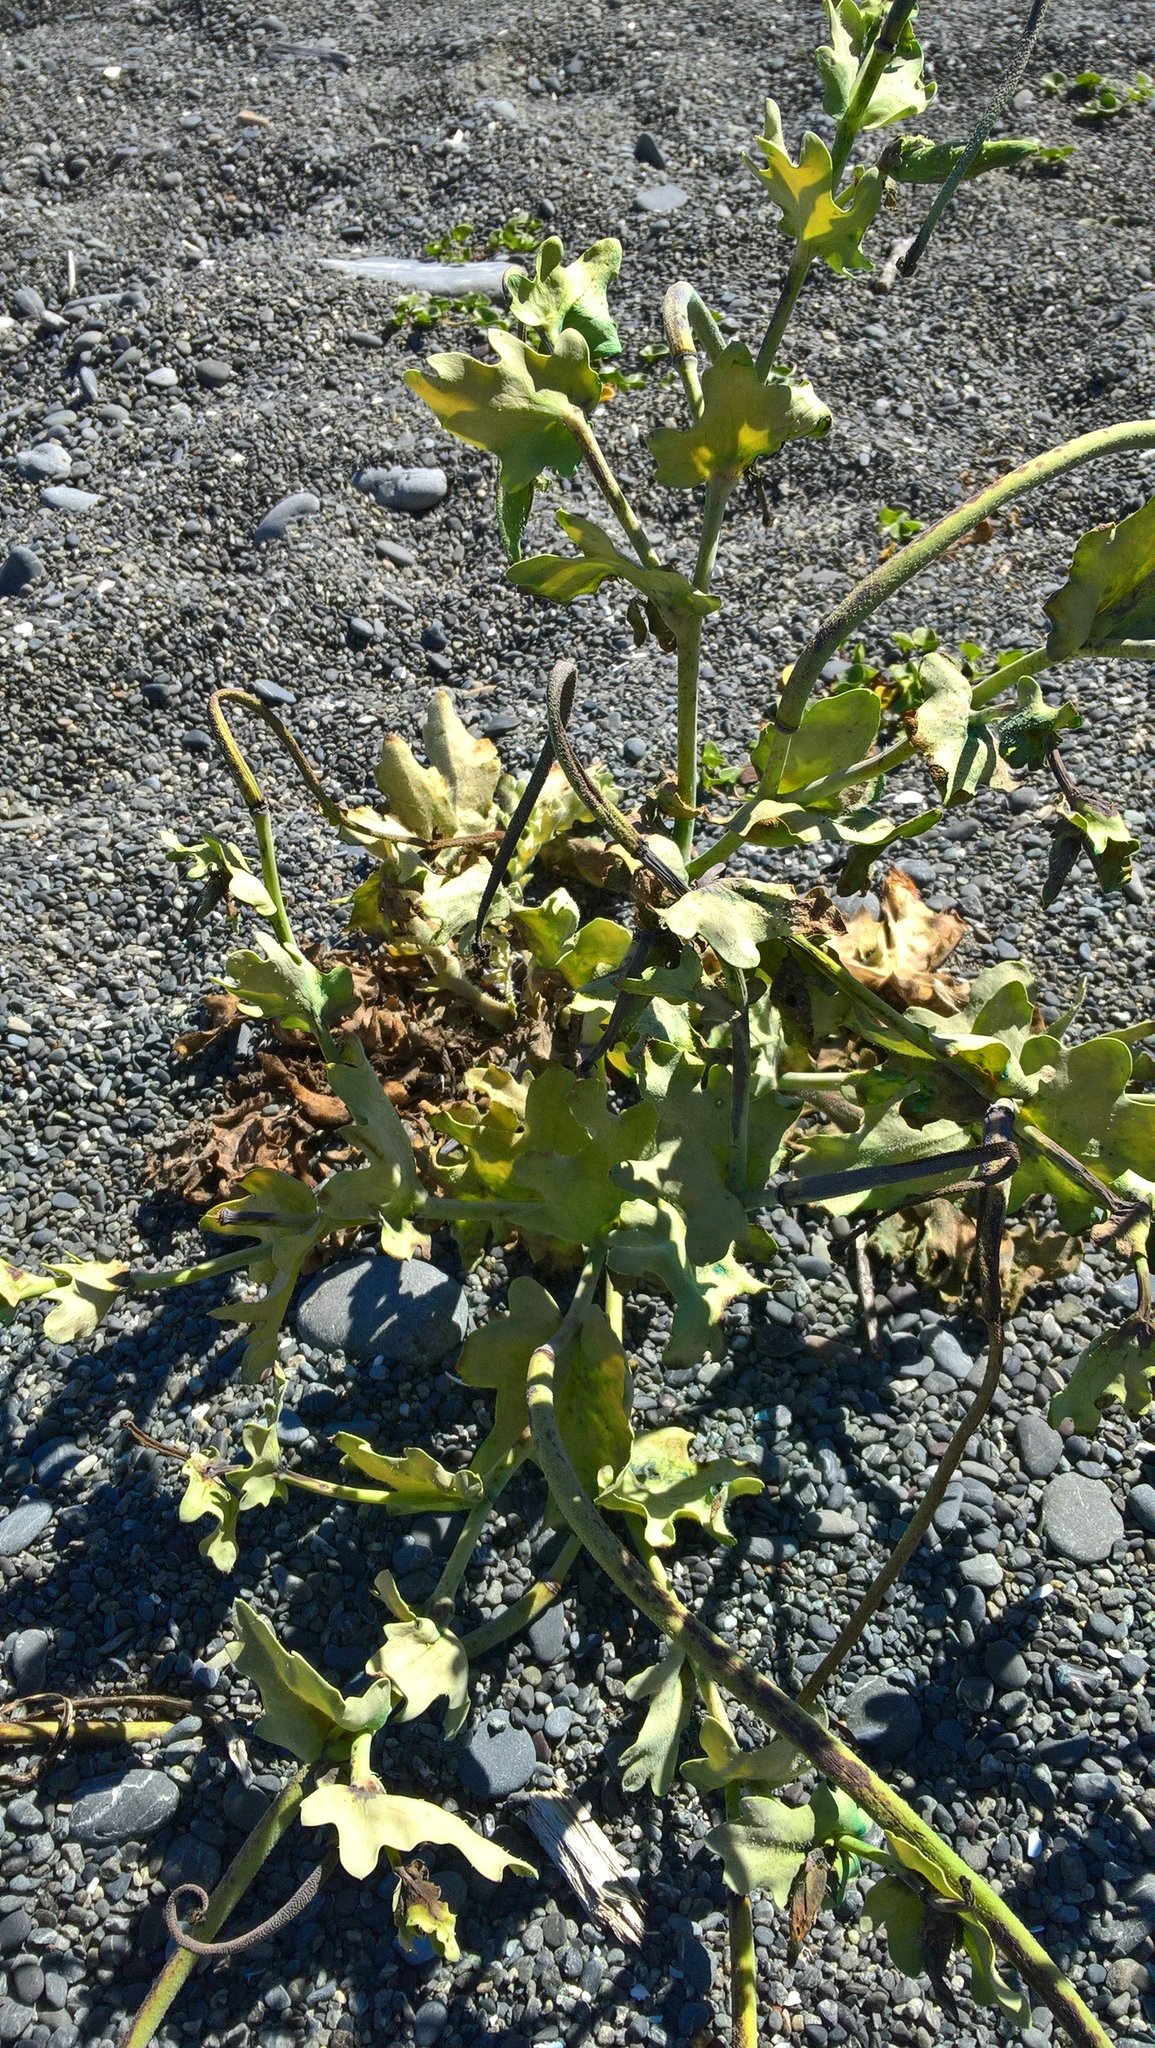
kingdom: Plantae
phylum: Tracheophyta
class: Magnoliopsida
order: Ranunculales
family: Papaveraceae
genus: Glaucium
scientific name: Glaucium flavum
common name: Yellow horned-poppy
